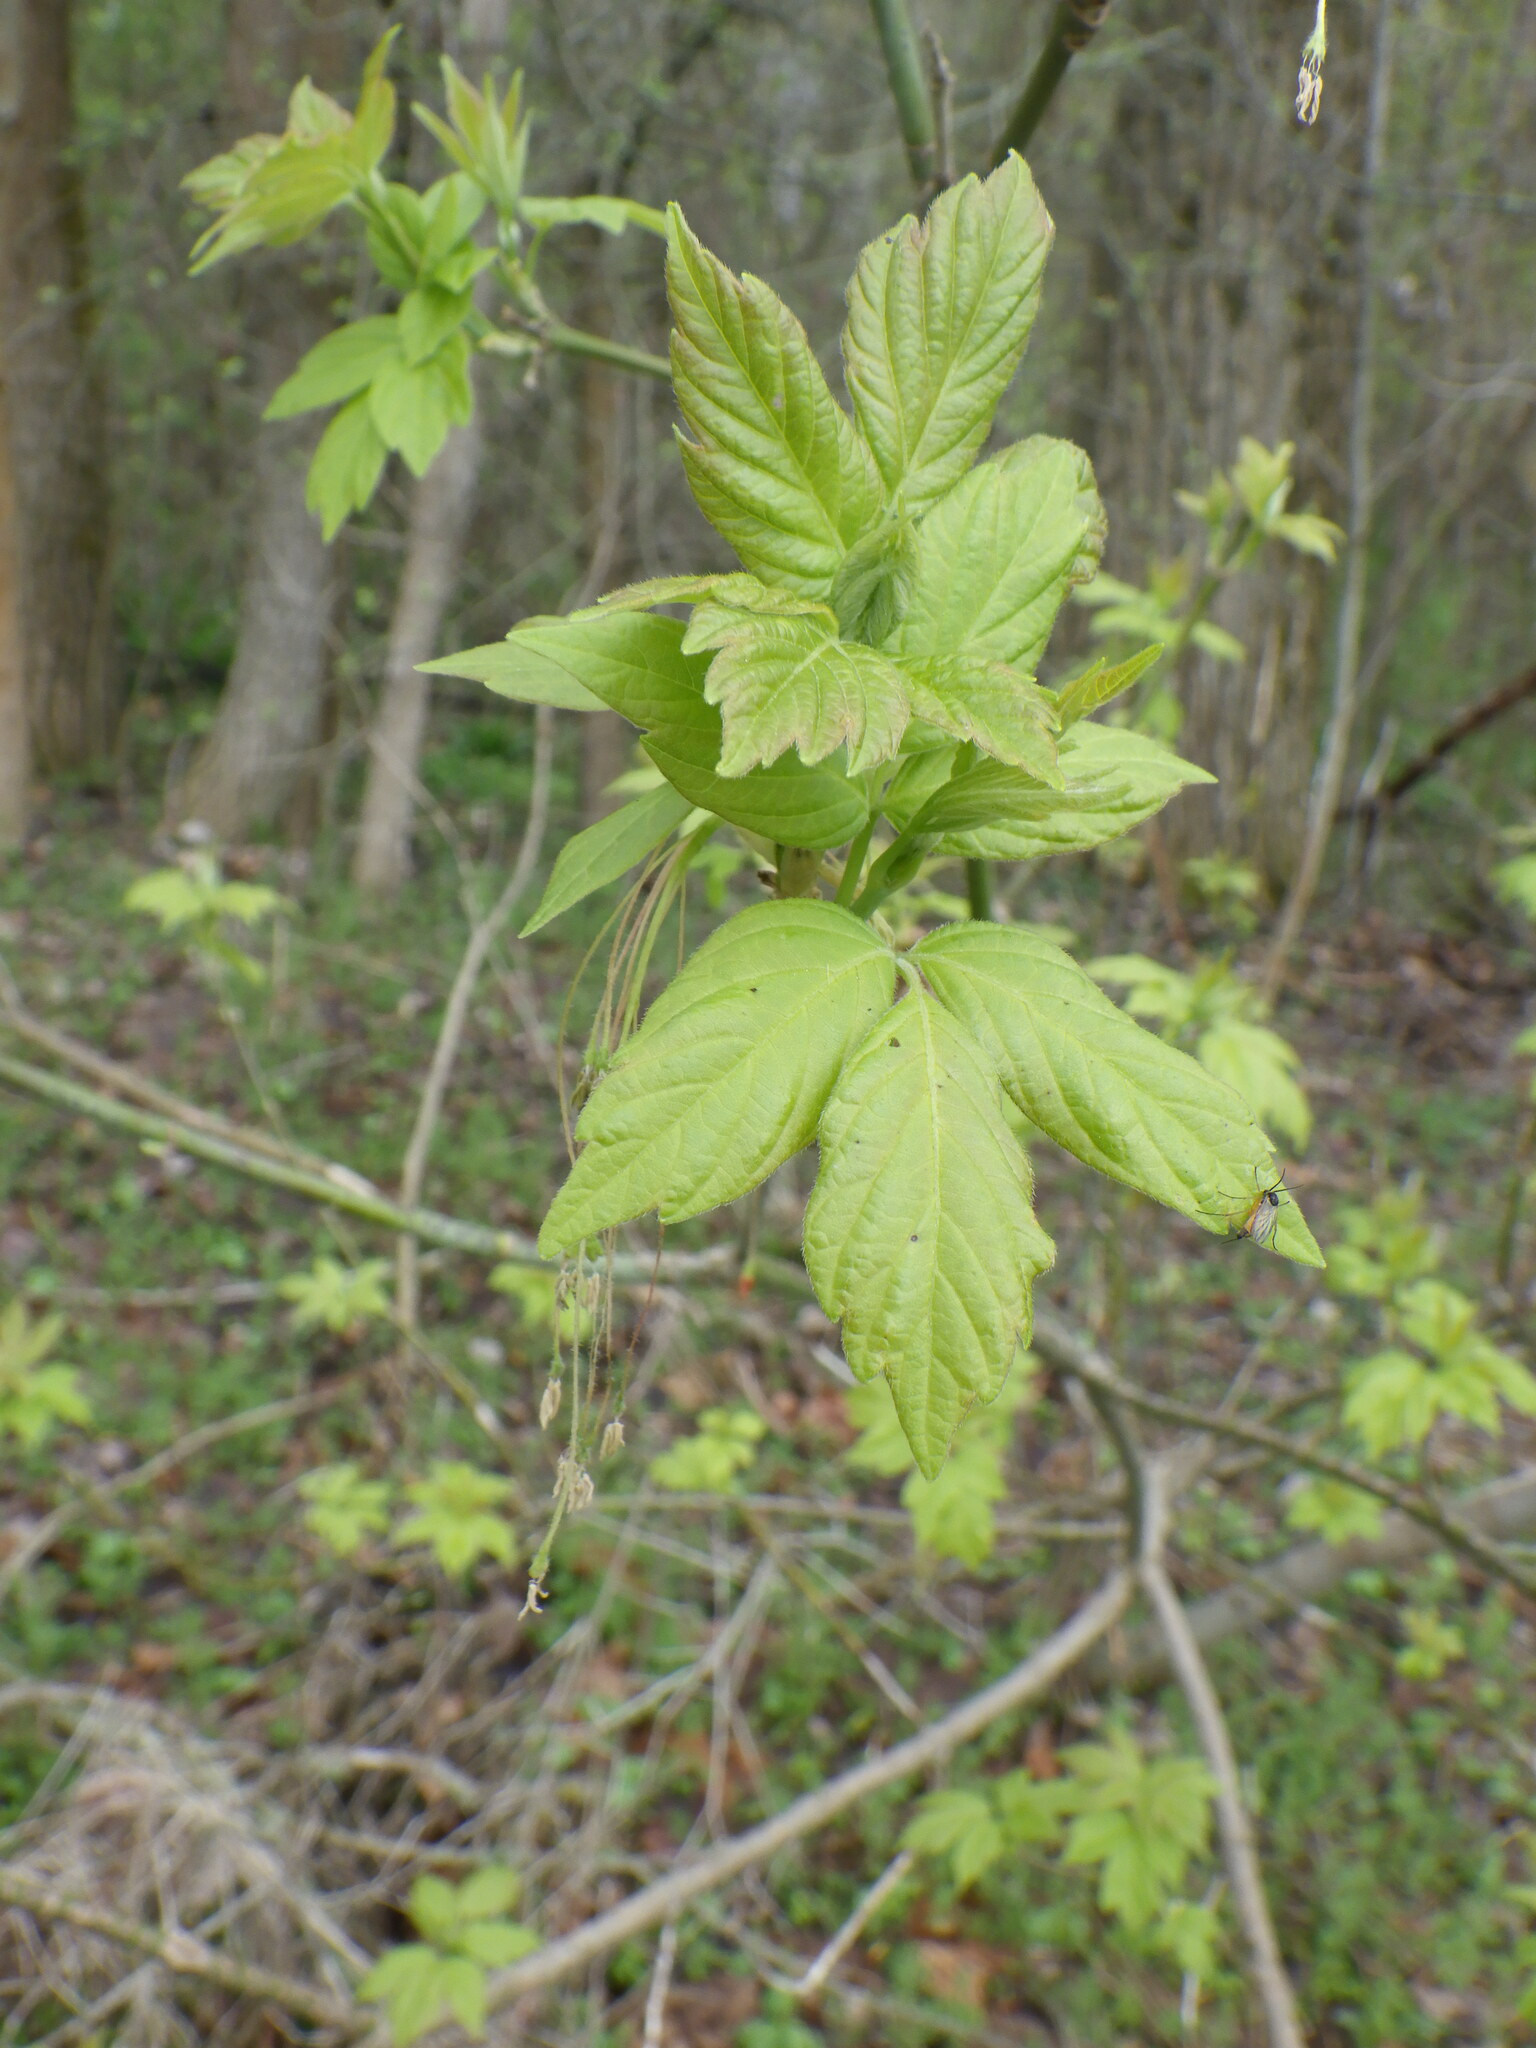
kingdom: Plantae
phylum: Tracheophyta
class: Magnoliopsida
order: Sapindales
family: Sapindaceae
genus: Acer
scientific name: Acer negundo
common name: Ashleaf maple
